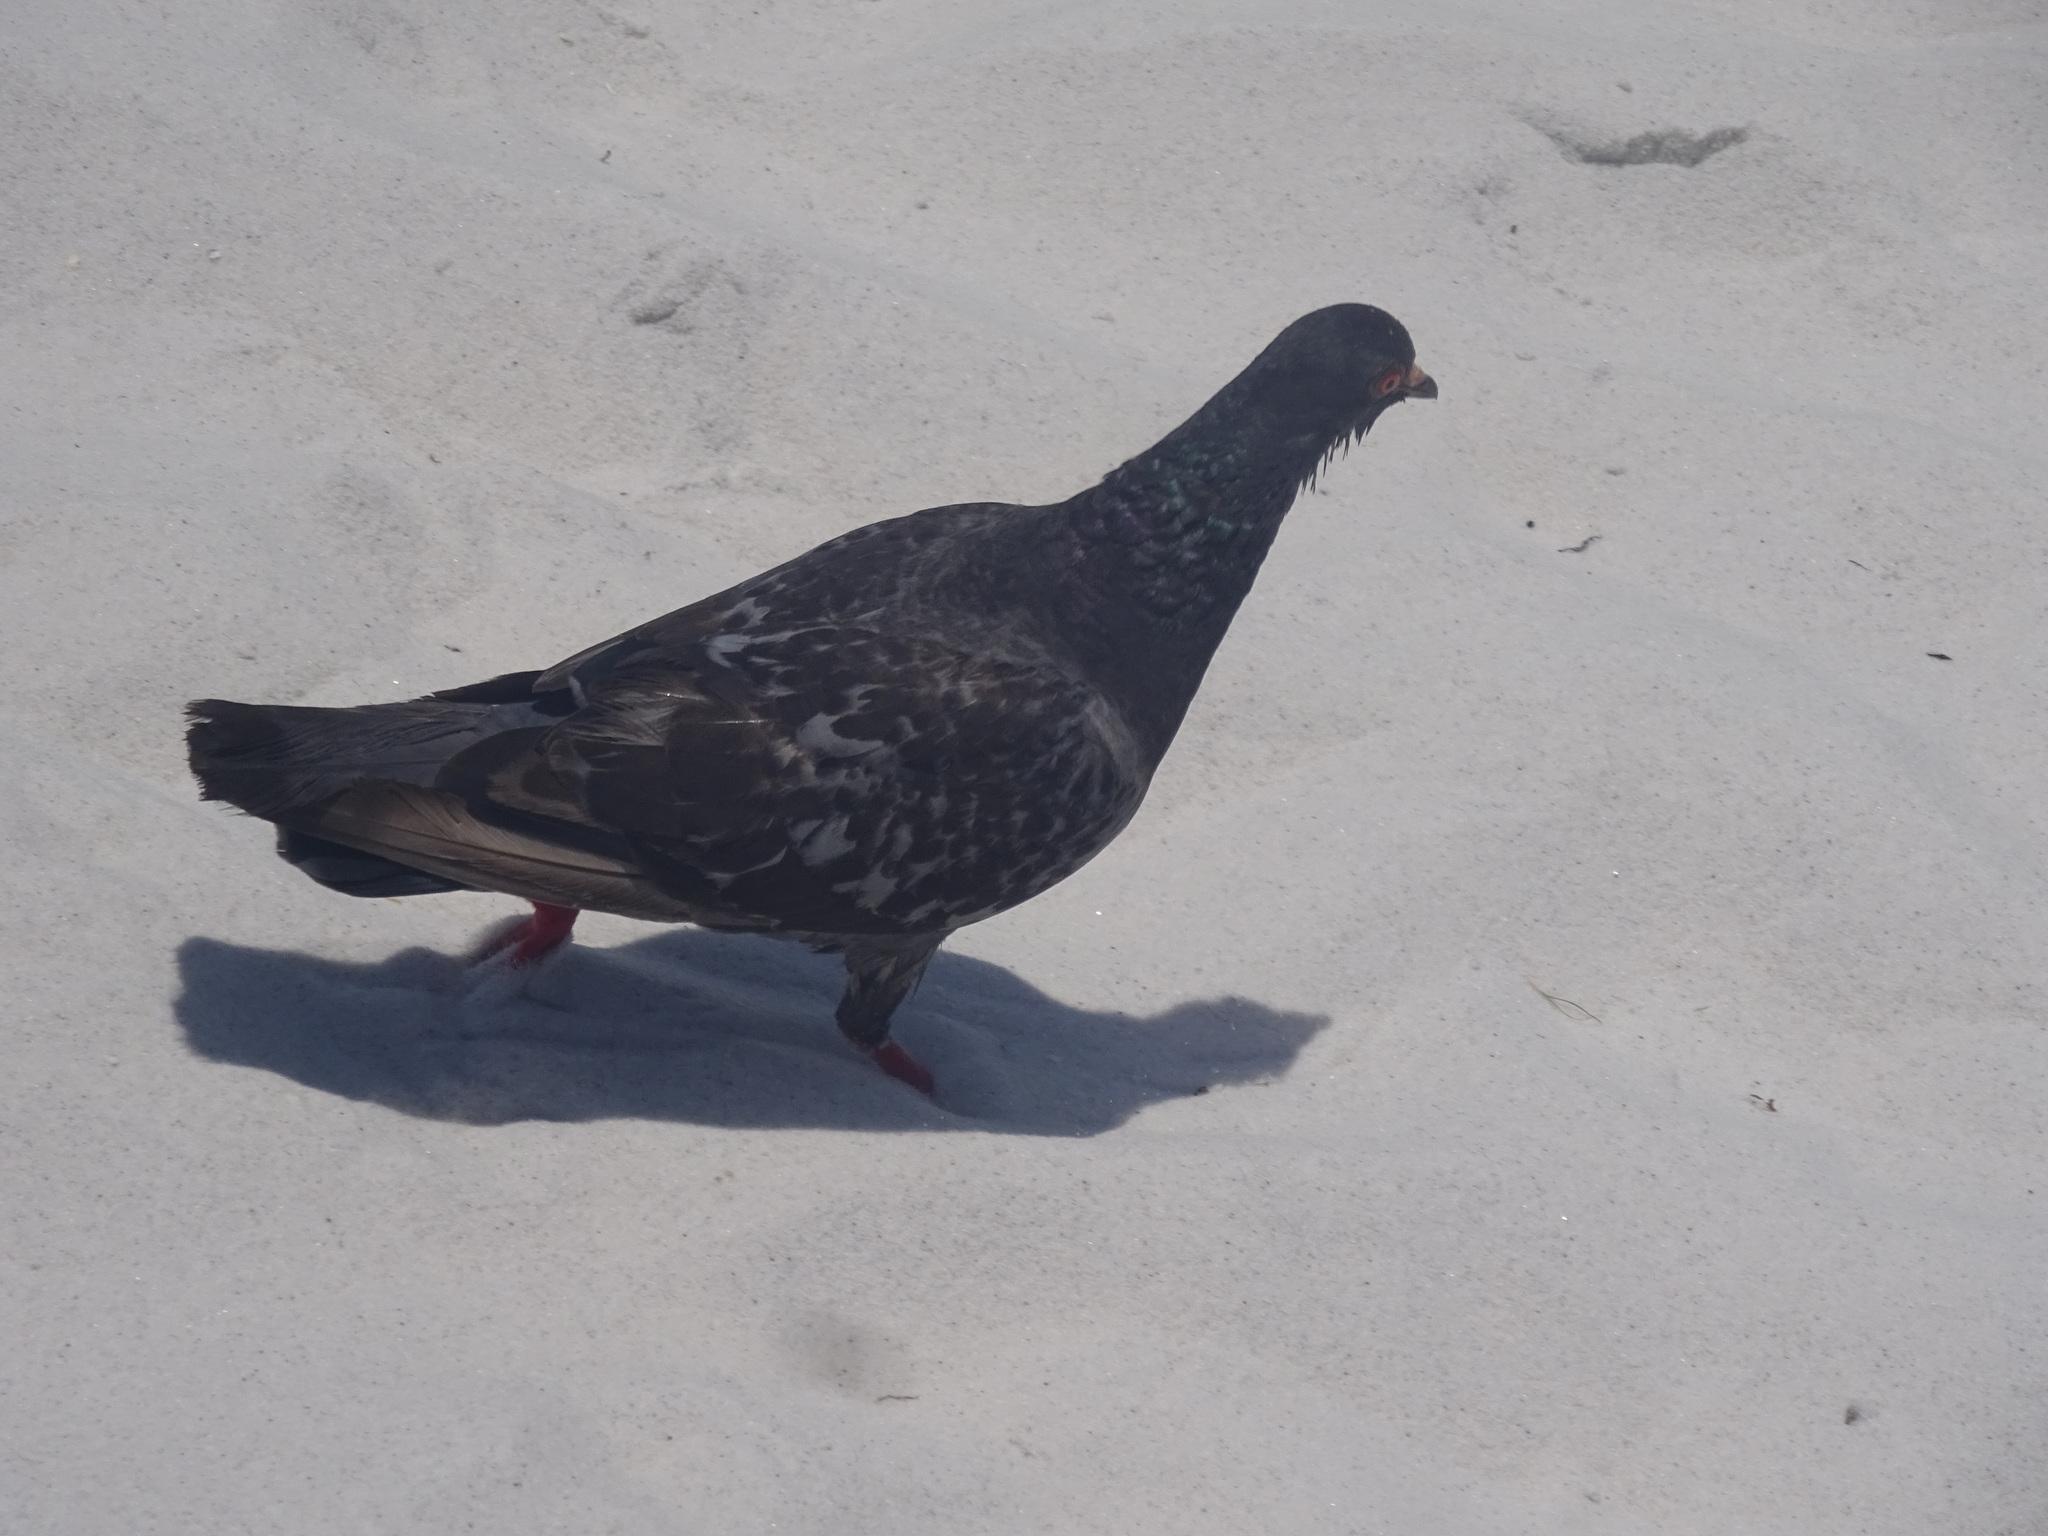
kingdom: Animalia
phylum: Chordata
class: Aves
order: Columbiformes
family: Columbidae
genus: Columba
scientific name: Columba livia
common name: Rock pigeon
